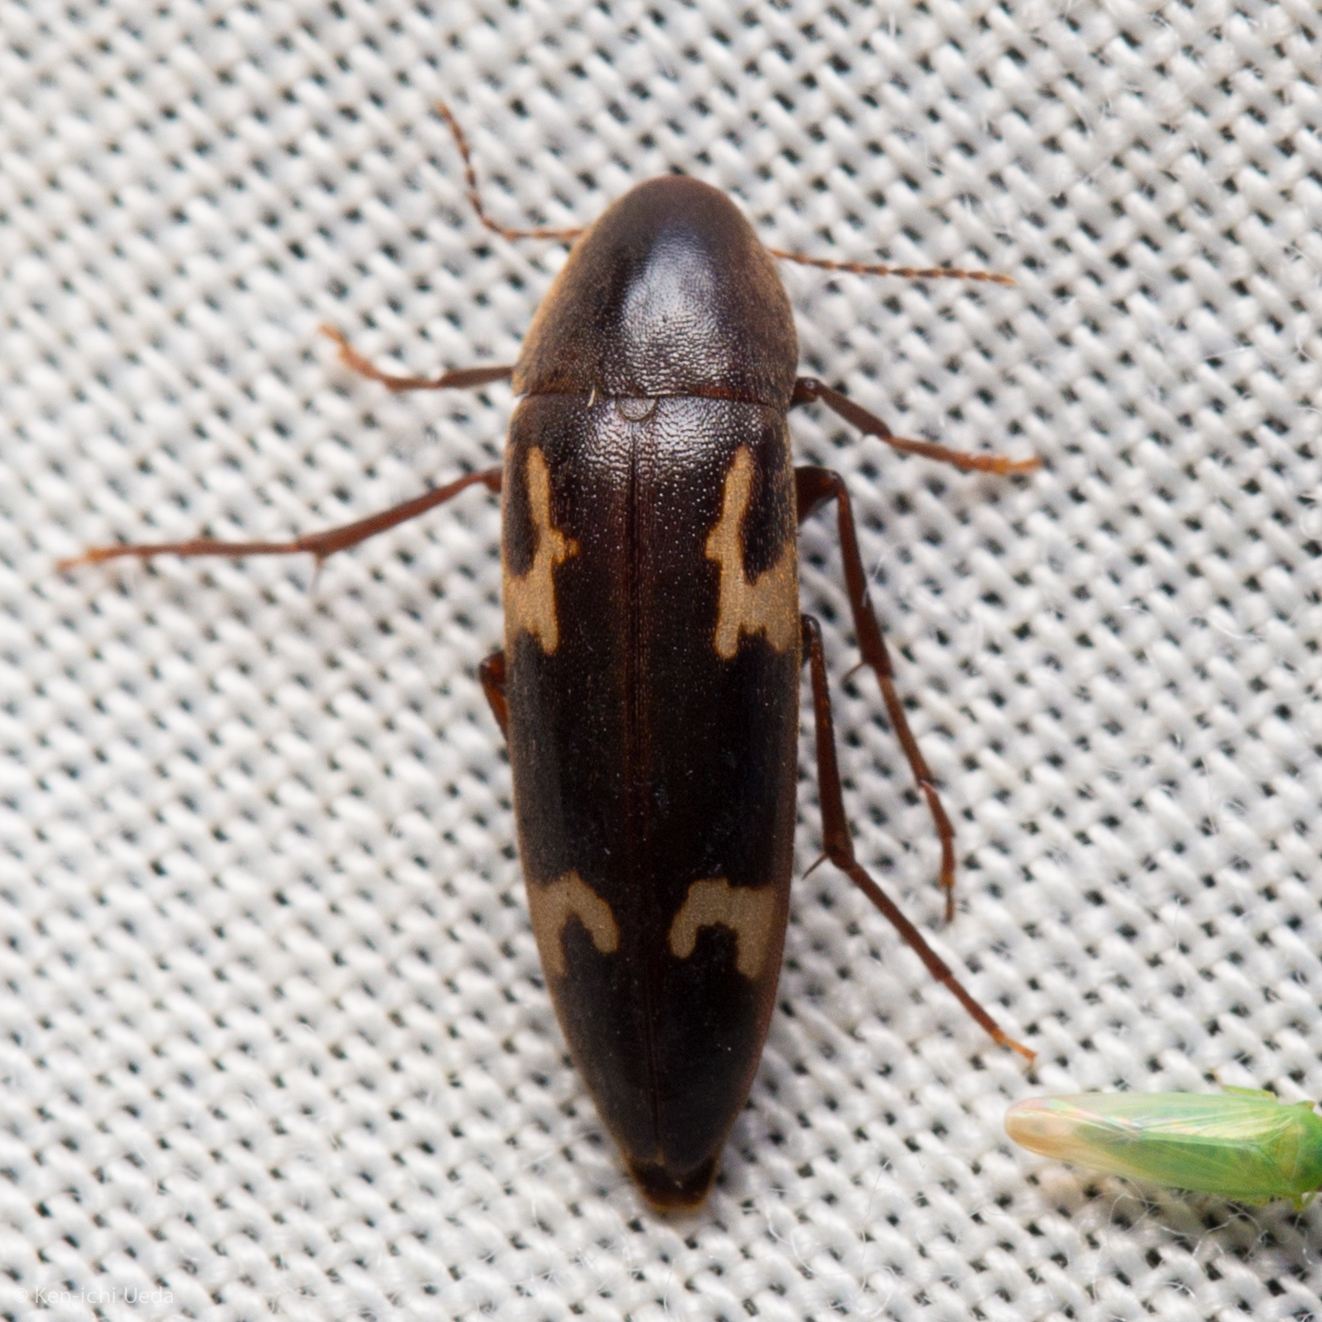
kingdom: Animalia
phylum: Arthropoda
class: Insecta
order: Coleoptera
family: Melandryidae
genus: Dircaea
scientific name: Dircaea liturata
